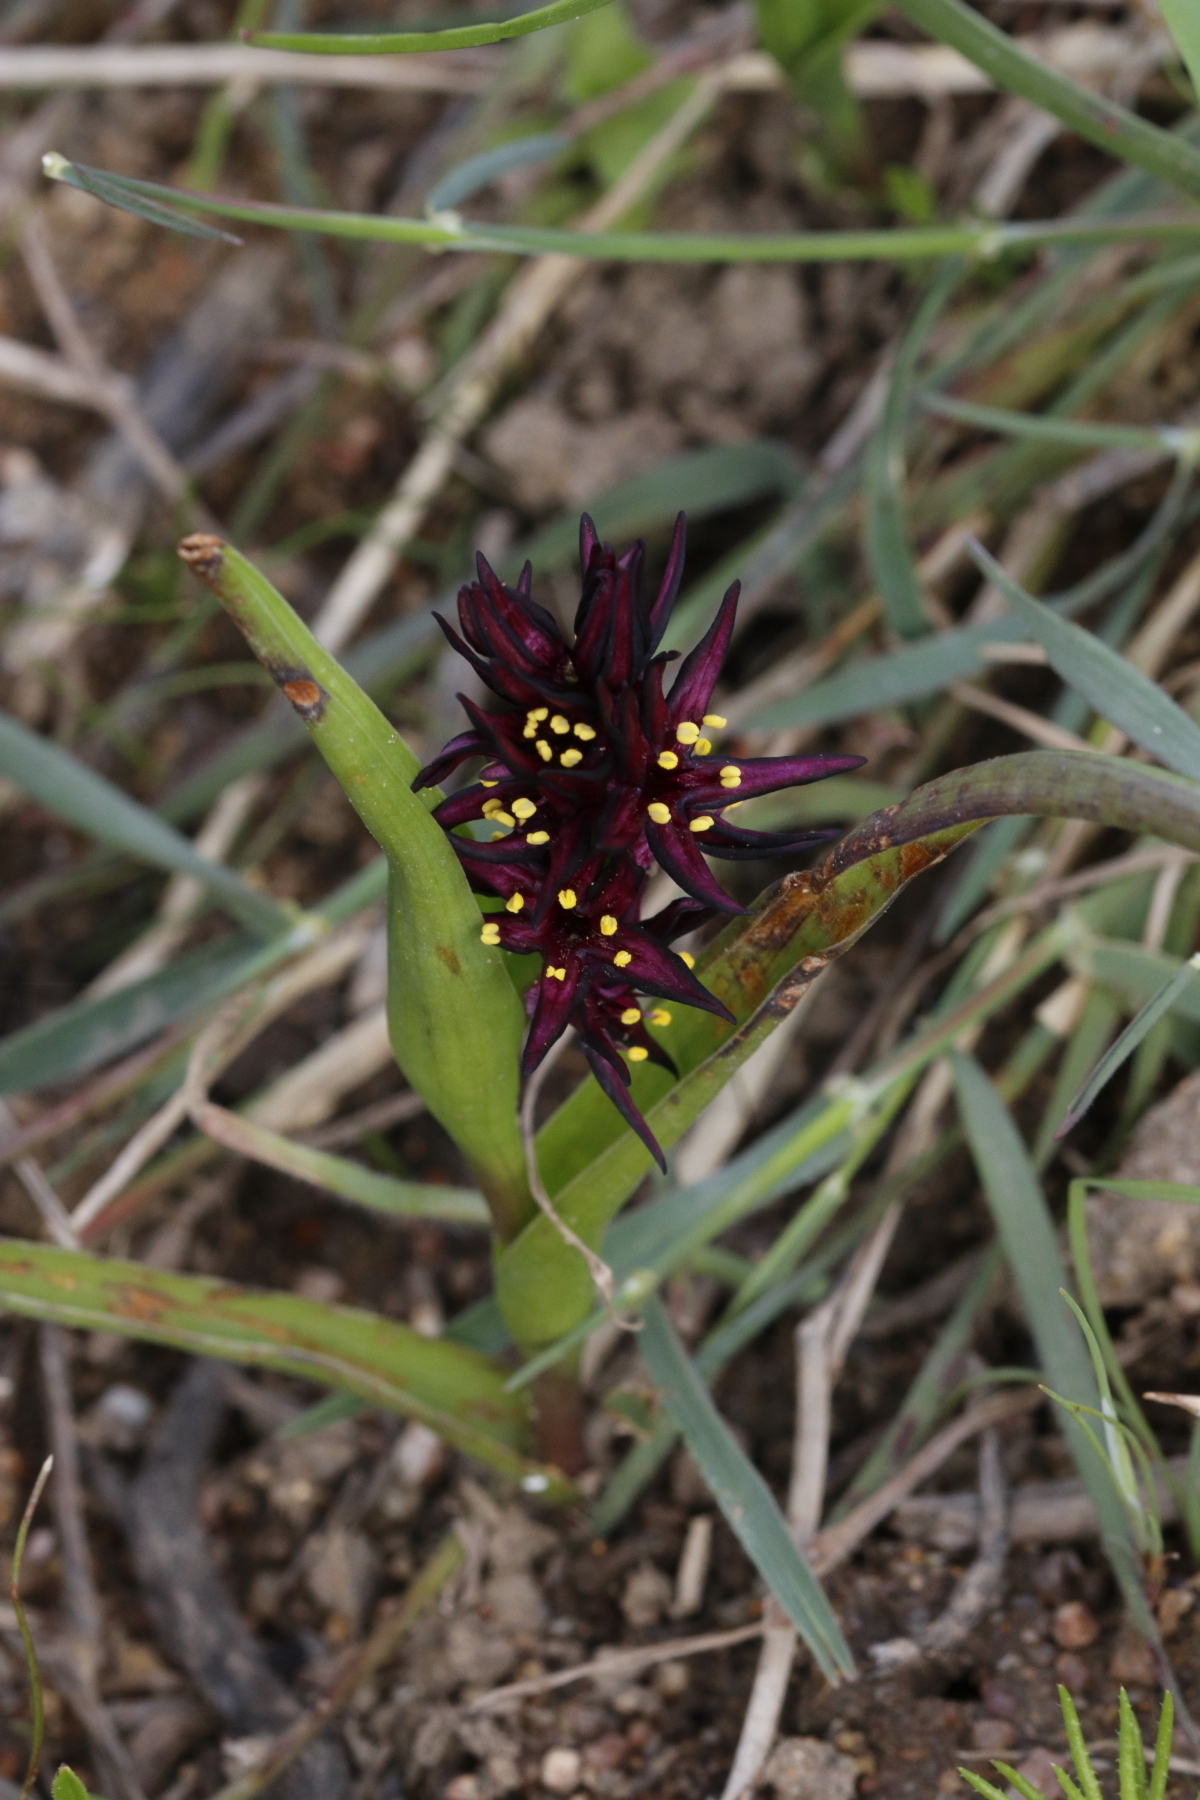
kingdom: Plantae
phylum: Tracheophyta
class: Liliopsida
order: Liliales
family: Colchicaceae
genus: Wurmbea
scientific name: Wurmbea marginata
